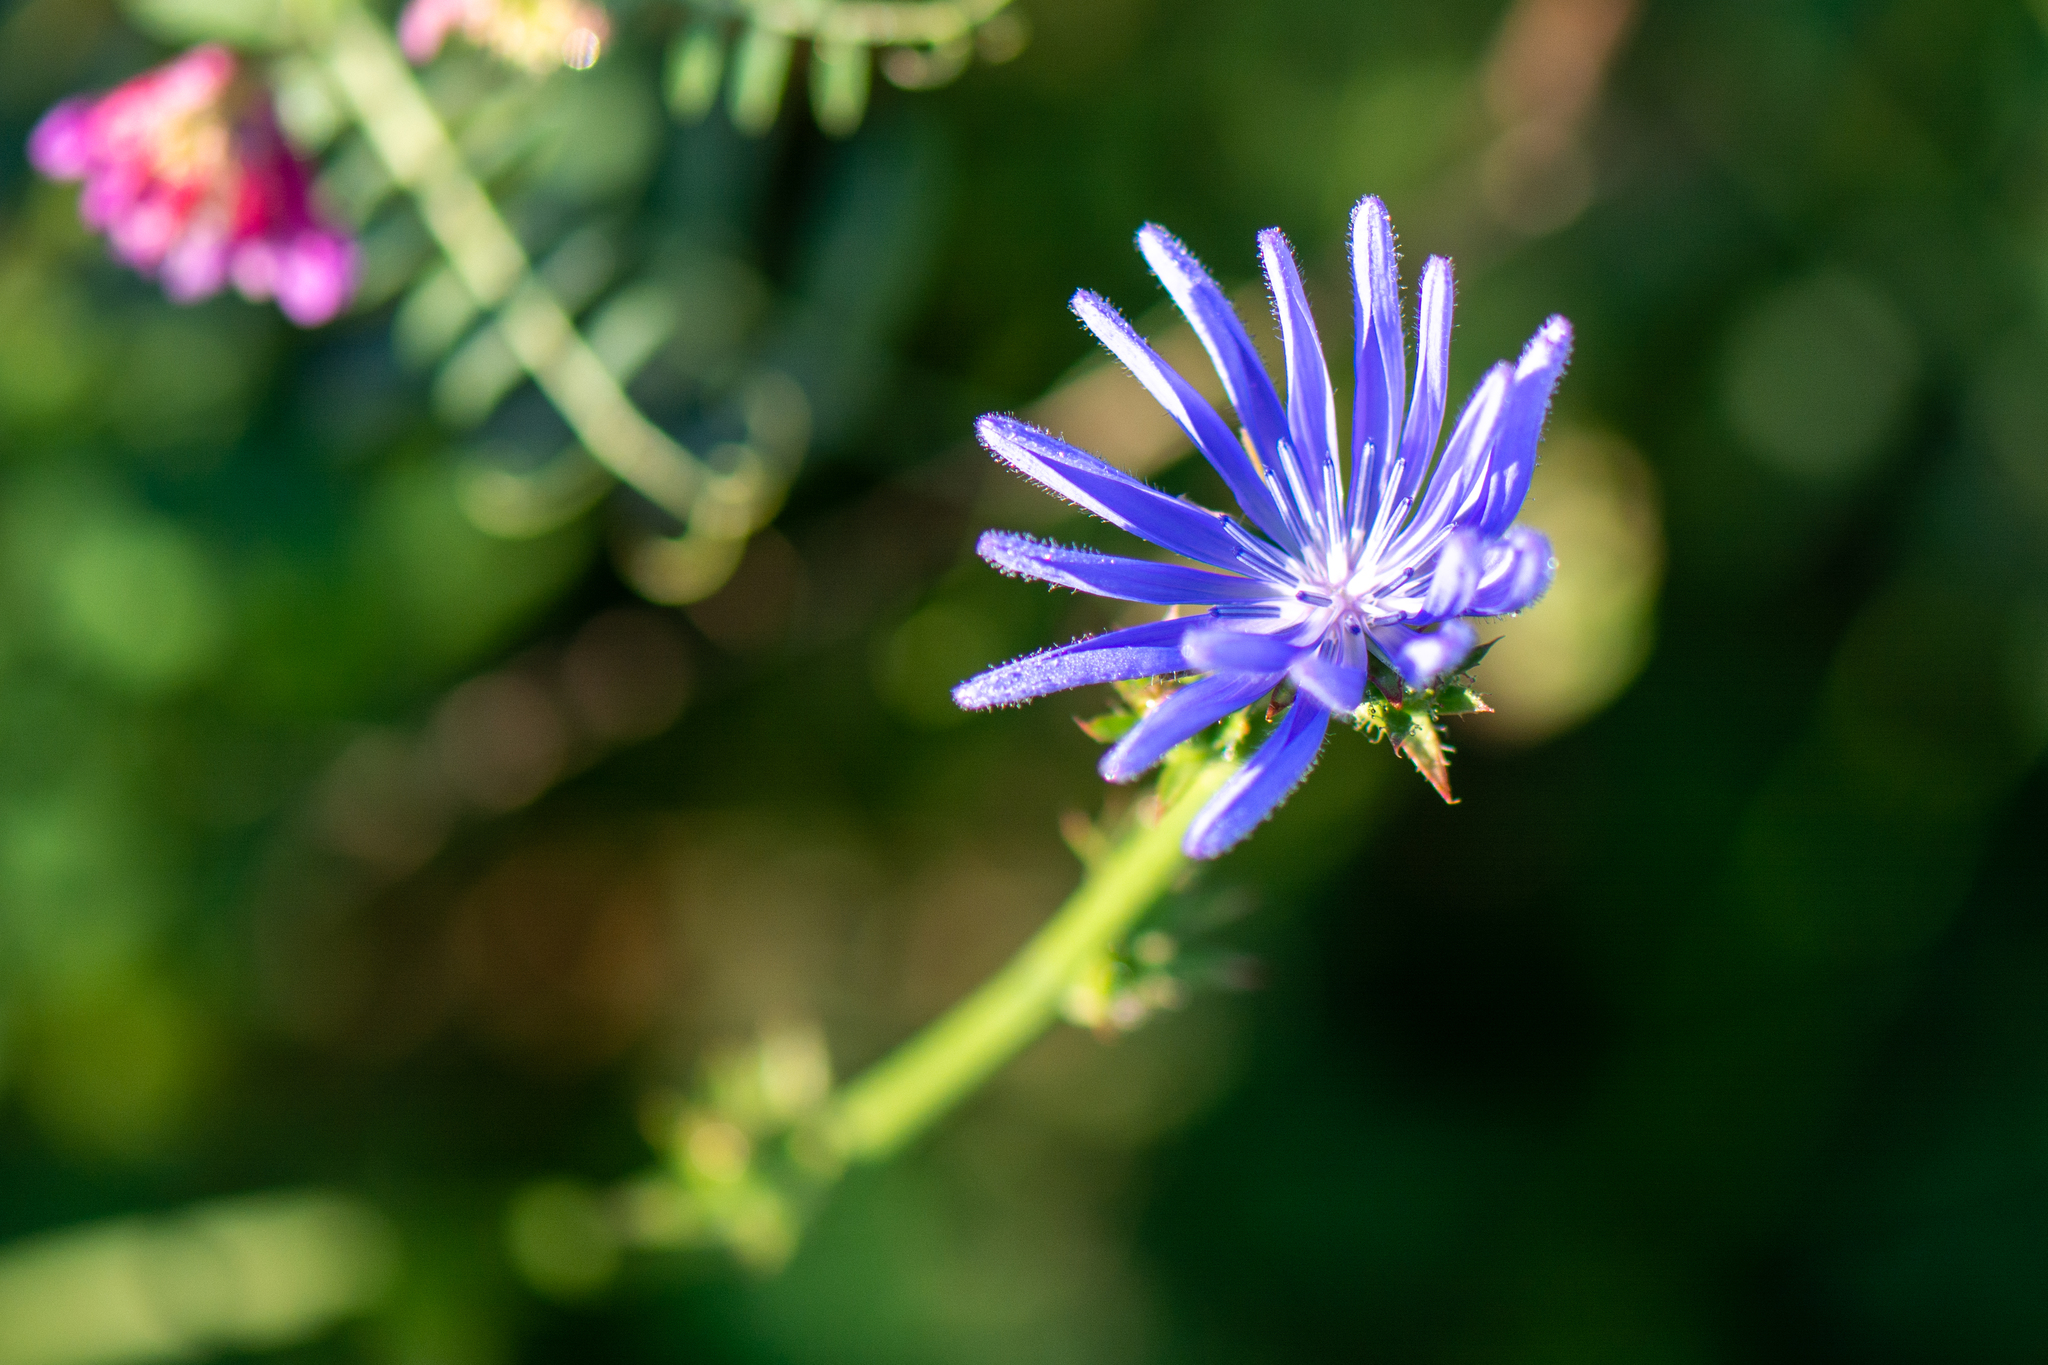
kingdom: Plantae
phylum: Tracheophyta
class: Magnoliopsida
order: Asterales
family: Asteraceae
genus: Cichorium
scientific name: Cichorium intybus
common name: Chicory
